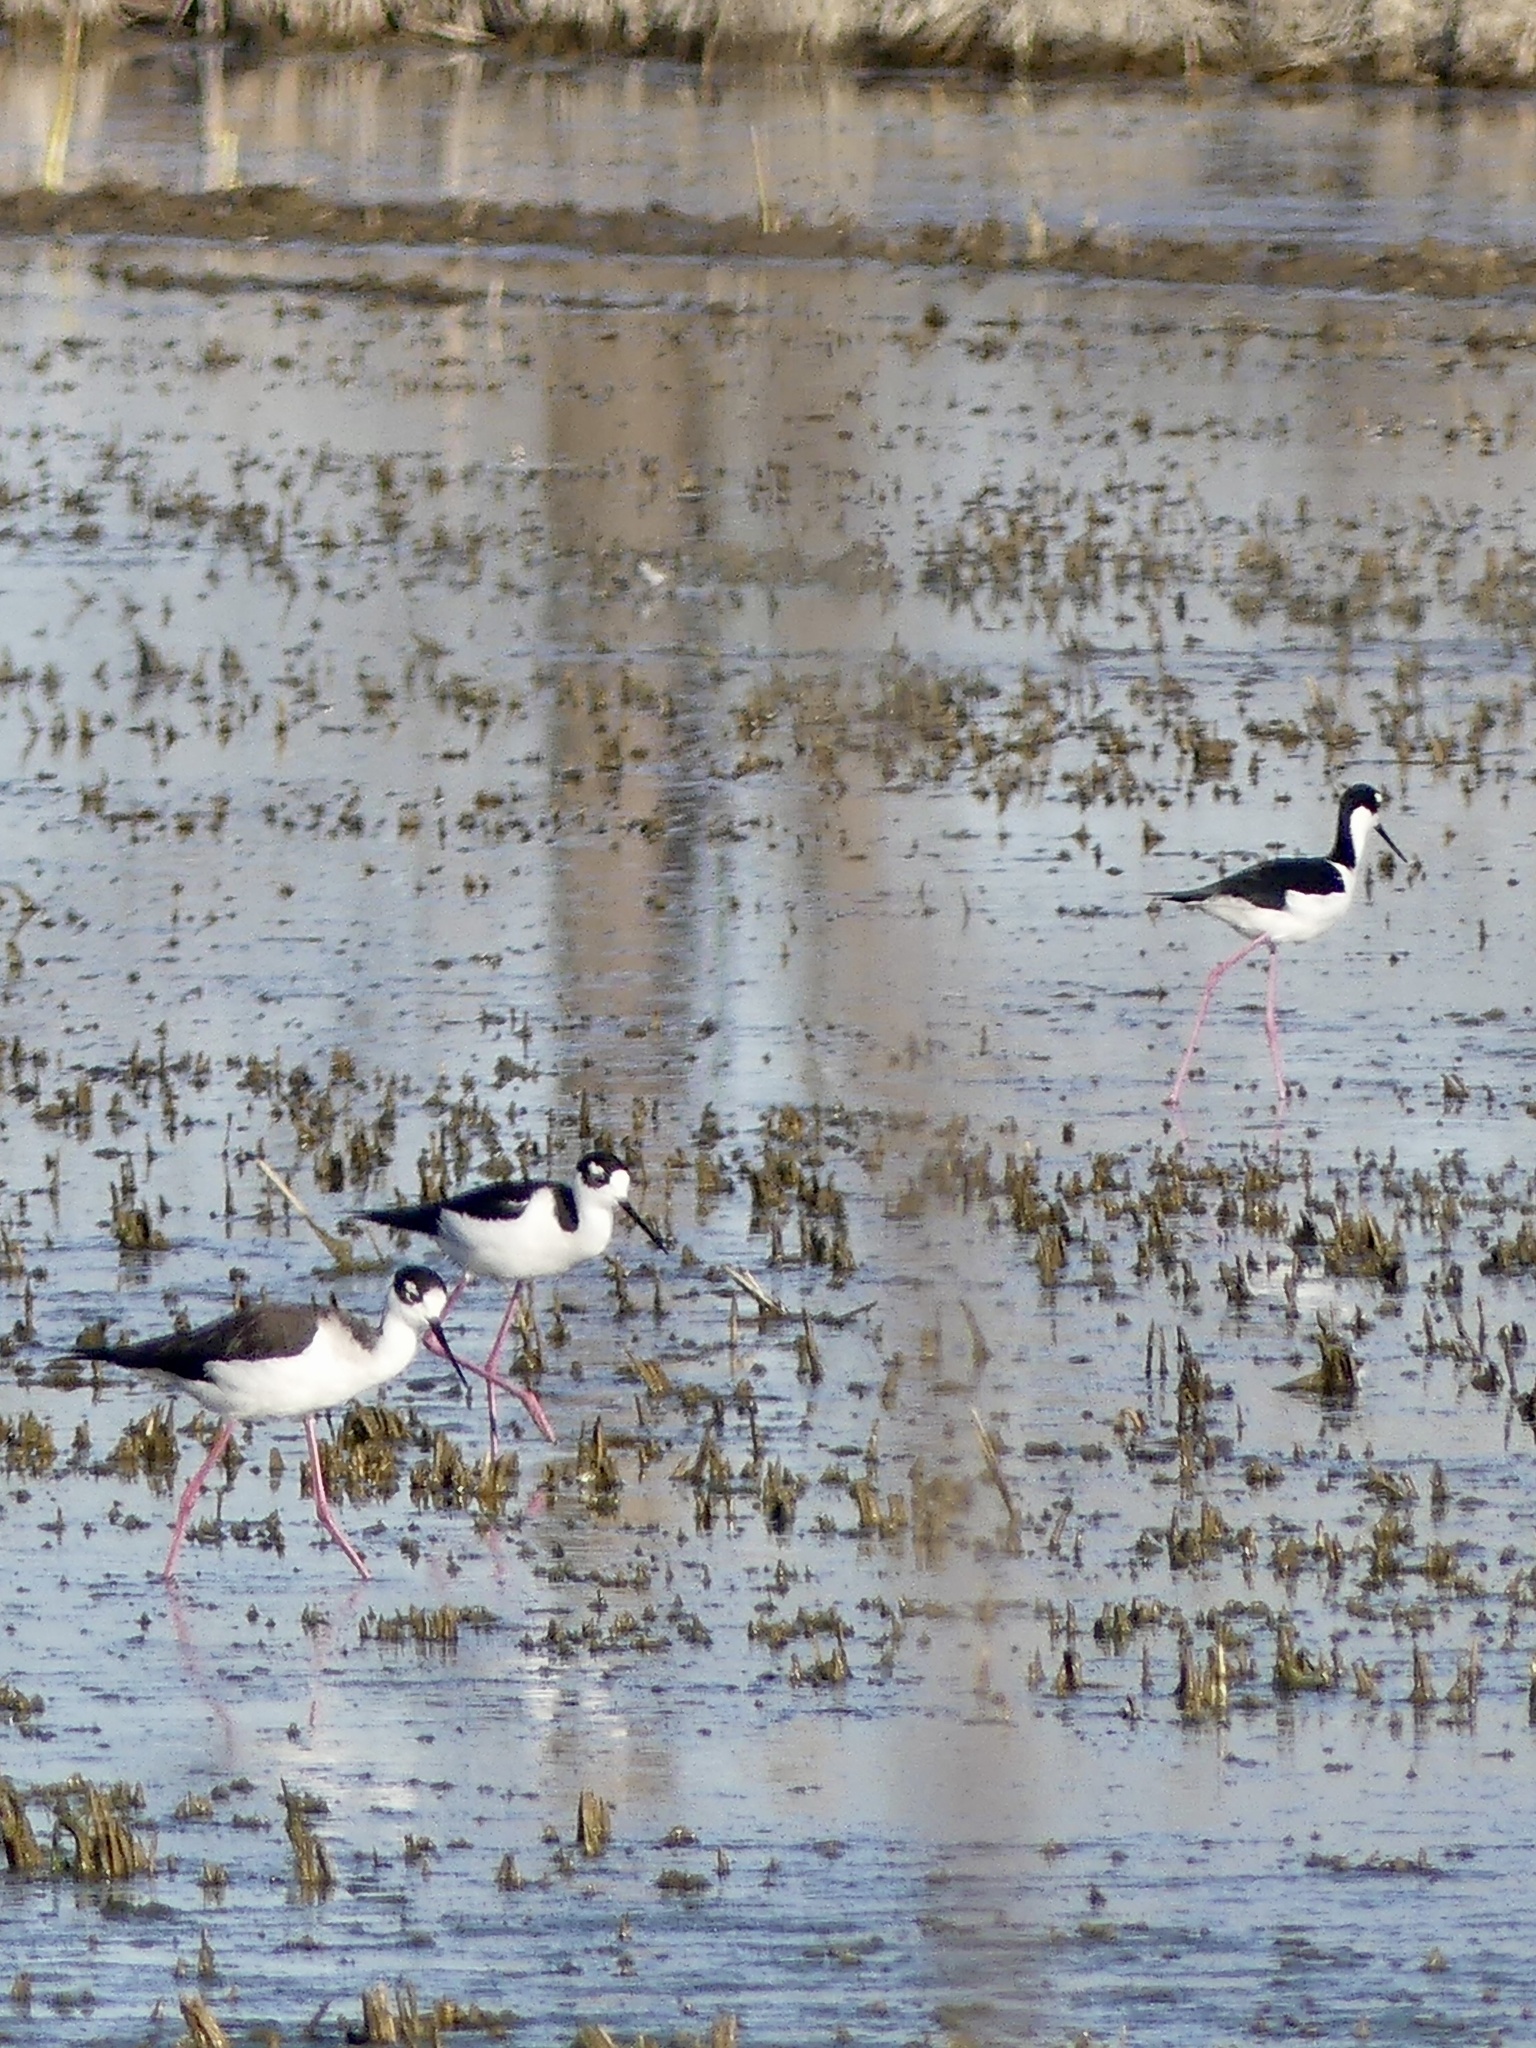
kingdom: Animalia
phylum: Chordata
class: Aves
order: Charadriiformes
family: Recurvirostridae
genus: Himantopus
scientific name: Himantopus mexicanus
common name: Black-necked stilt
